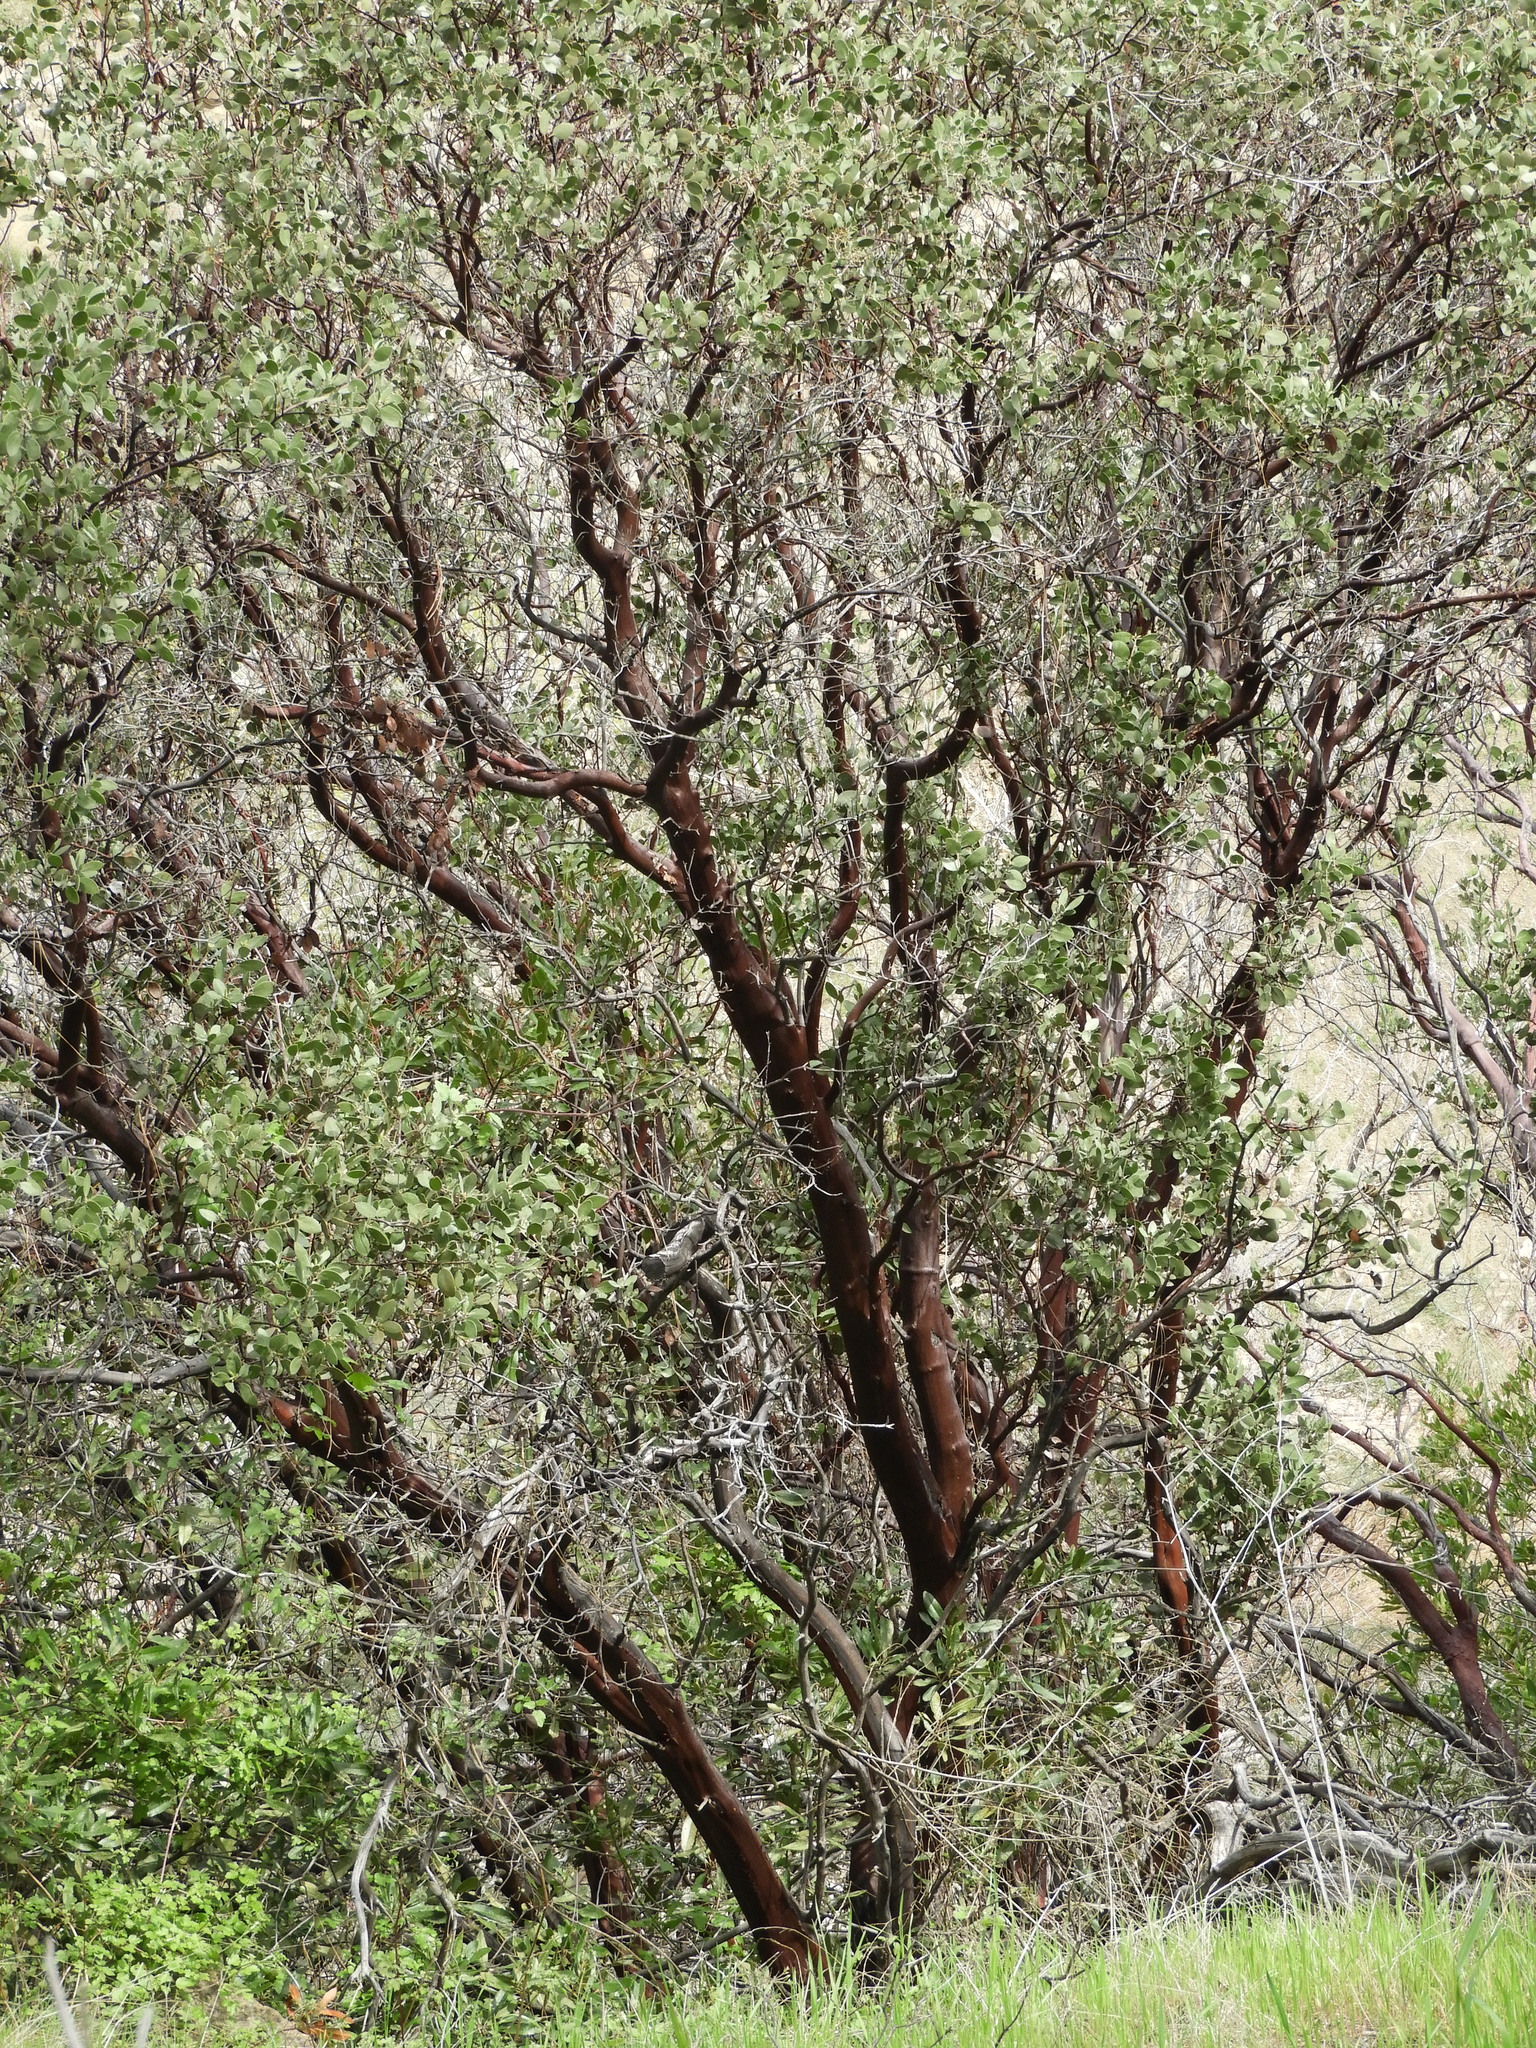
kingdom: Plantae
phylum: Tracheophyta
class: Magnoliopsida
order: Ericales
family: Ericaceae
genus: Arctostaphylos
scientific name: Arctostaphylos manzanita
